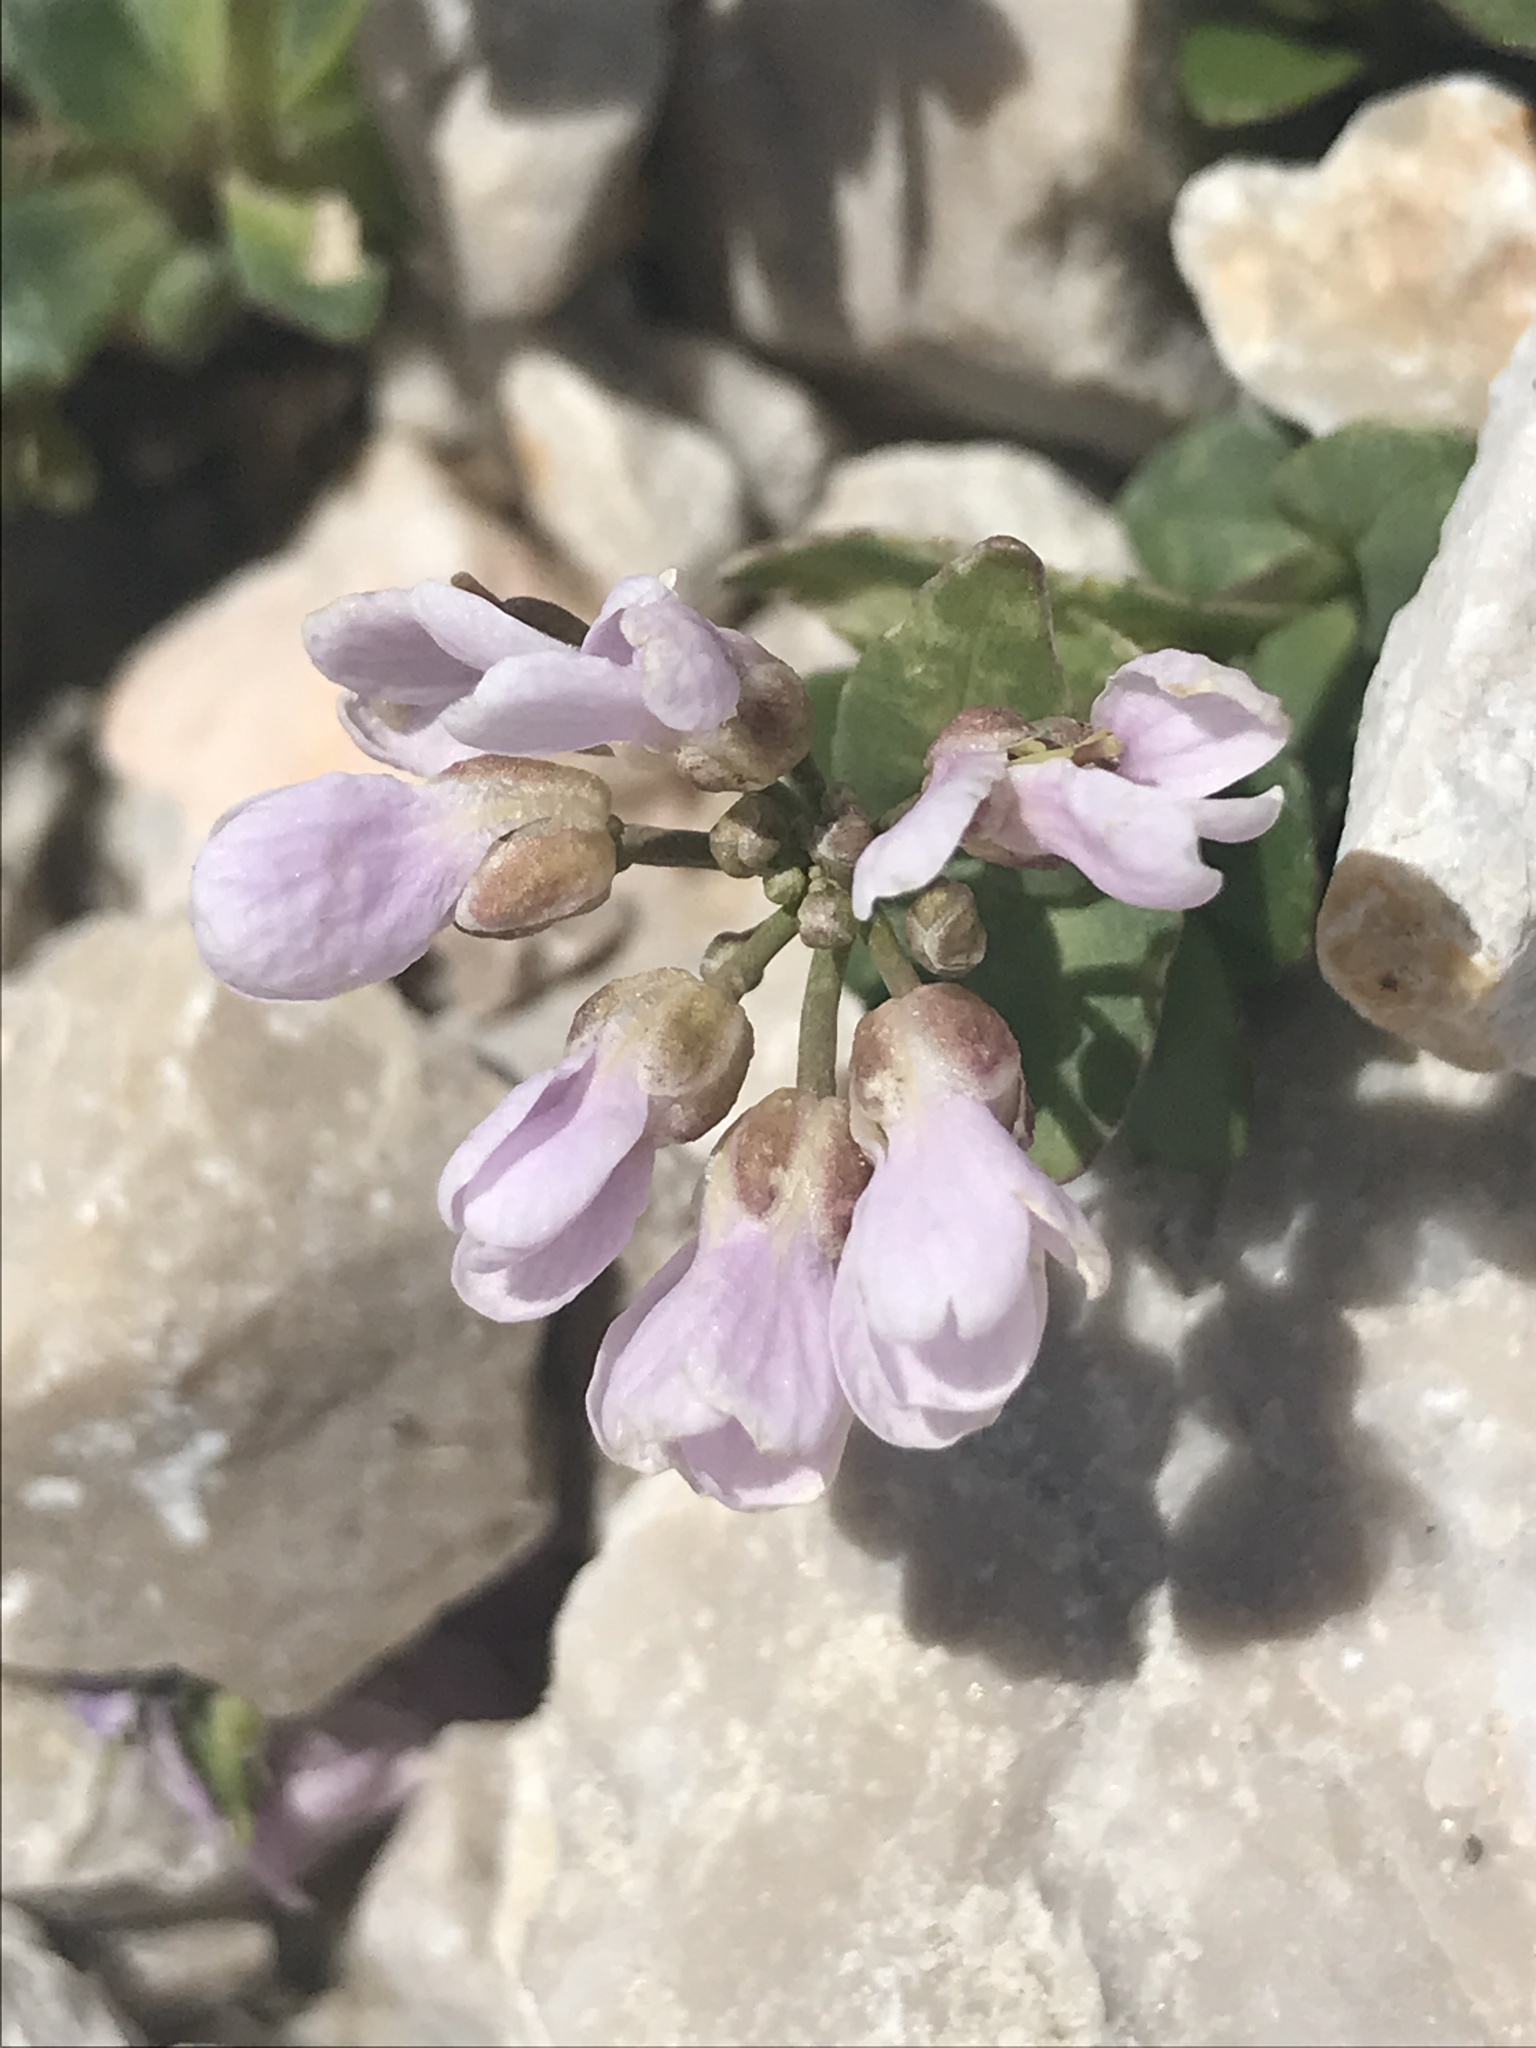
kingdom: Plantae
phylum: Tracheophyta
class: Magnoliopsida
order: Brassicales
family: Brassicaceae
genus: Noccaea
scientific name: Noccaea rotundifolia
